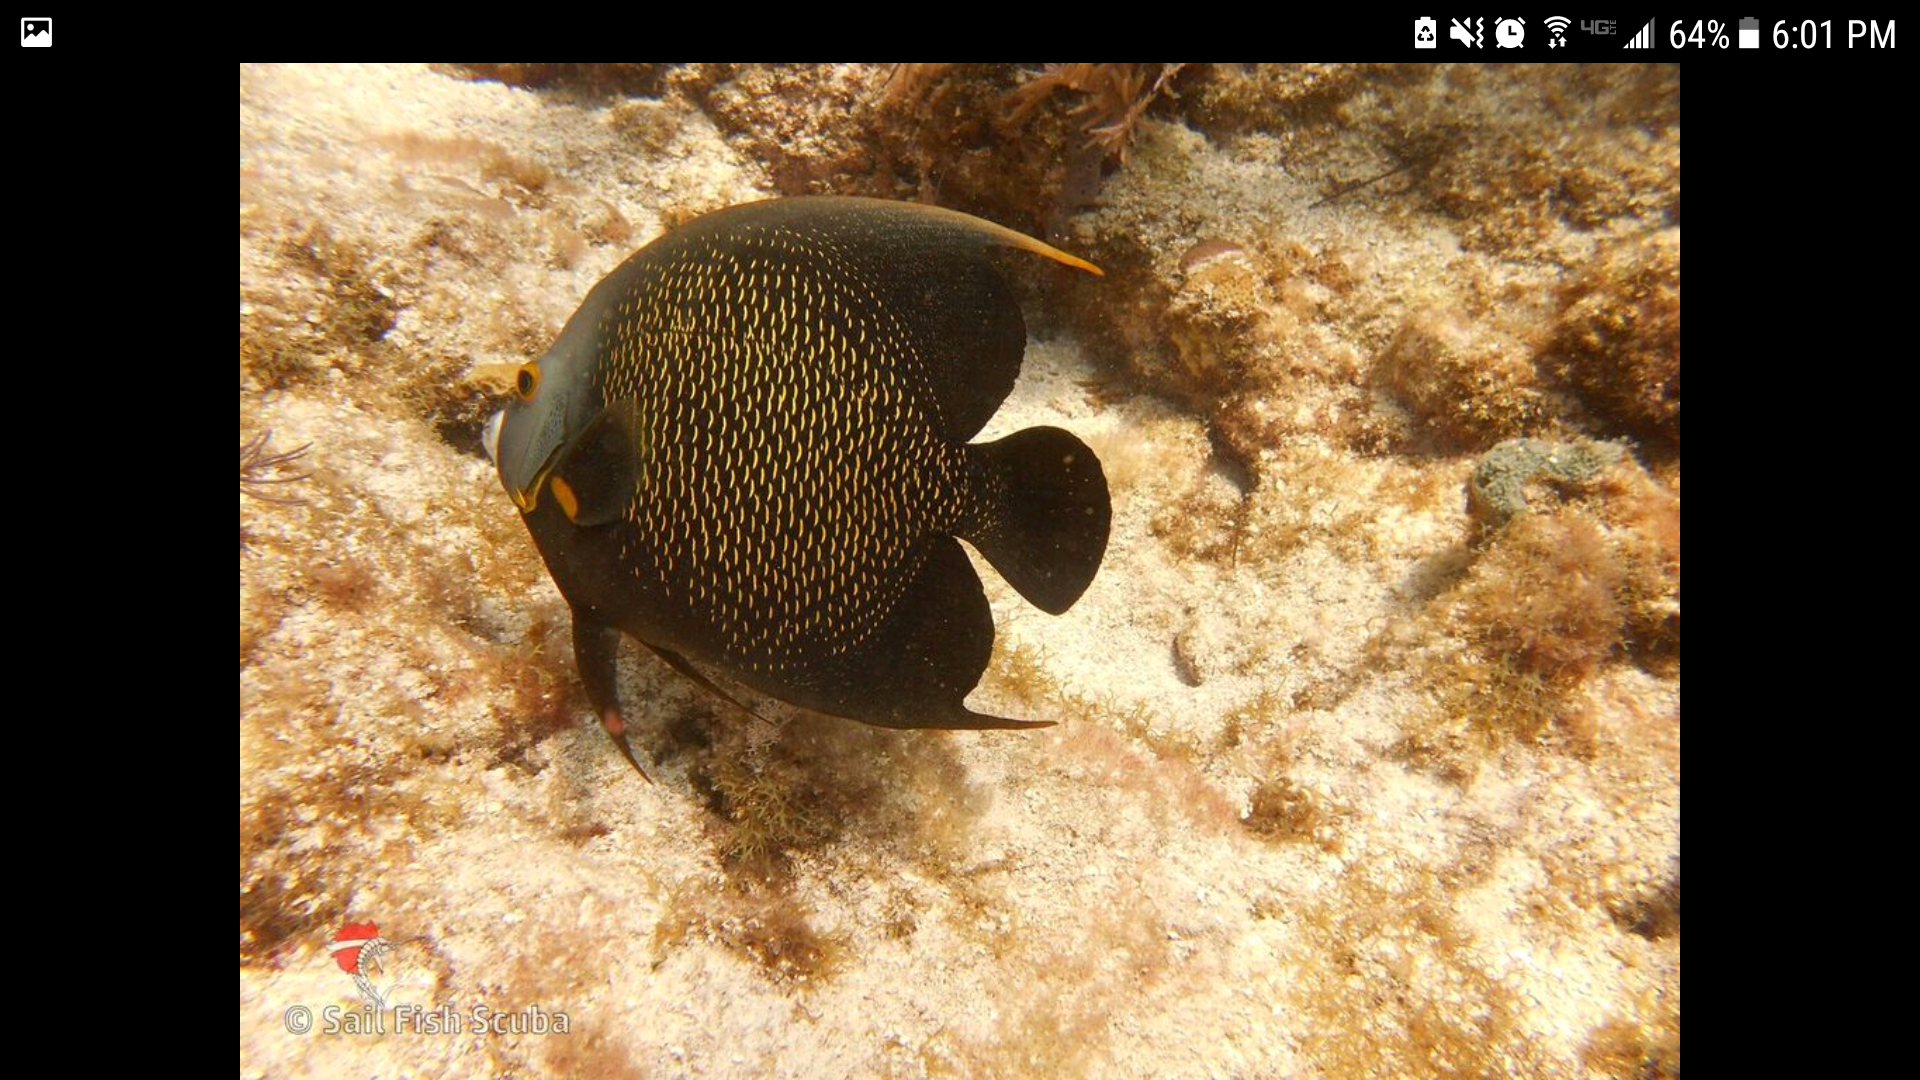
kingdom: Animalia
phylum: Chordata
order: Perciformes
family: Pomacanthidae
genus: Pomacanthus
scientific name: Pomacanthus paru
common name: French angelfish
